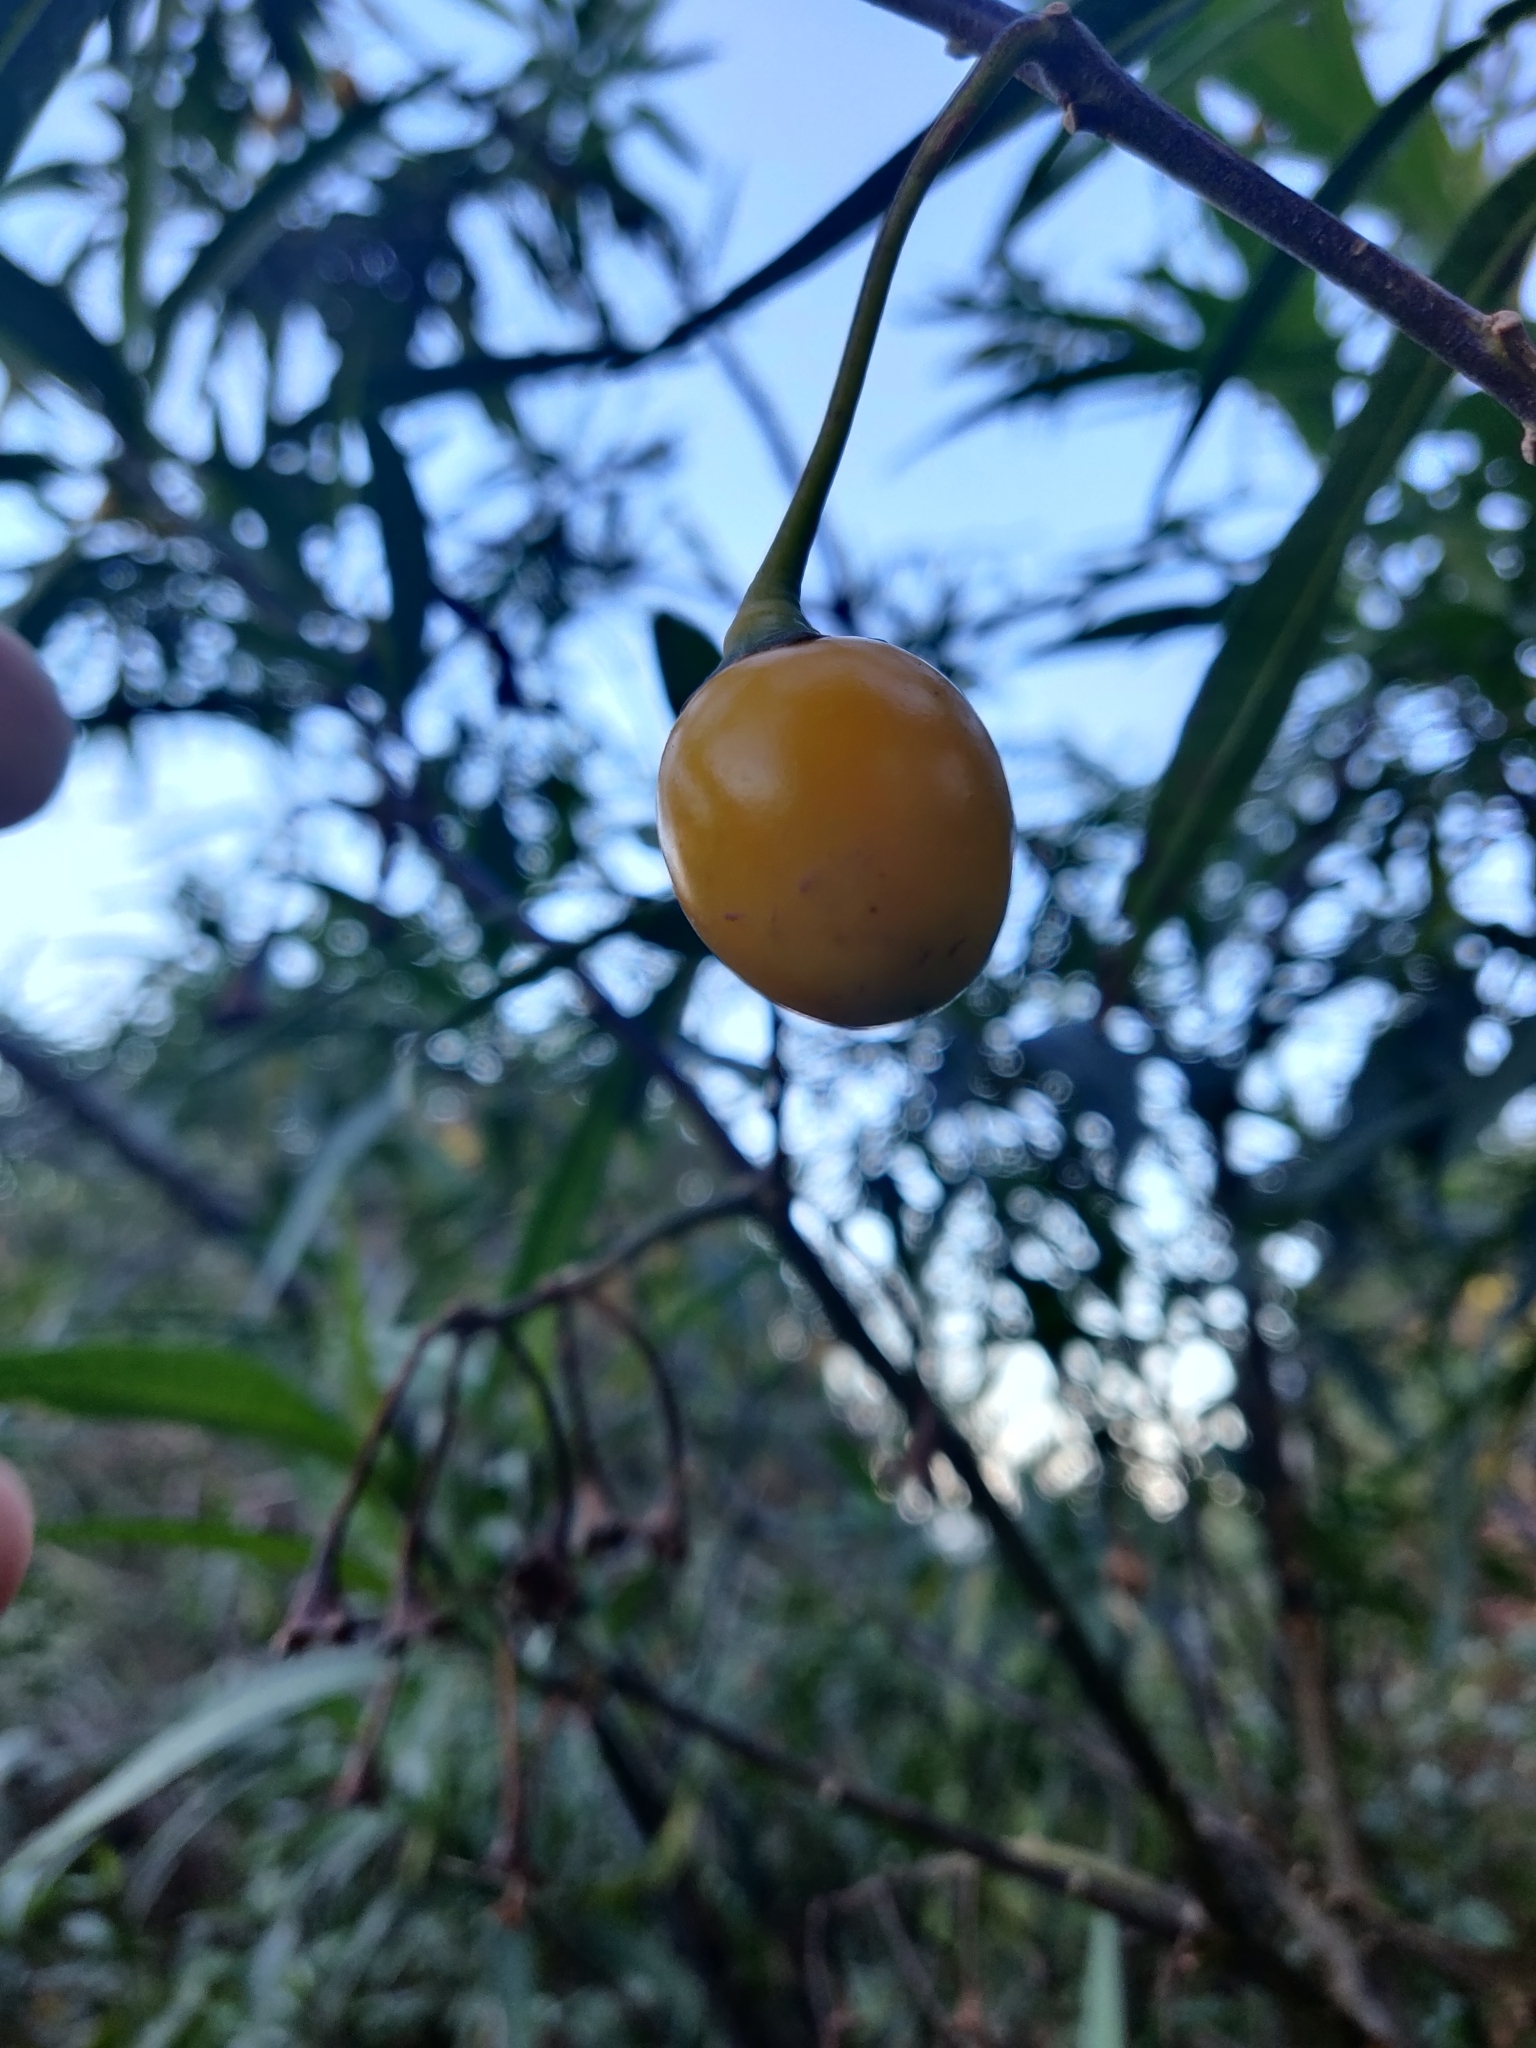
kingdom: Plantae
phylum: Tracheophyta
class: Magnoliopsida
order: Solanales
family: Solanaceae
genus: Solanum
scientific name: Solanum laciniatum
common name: Kangaroo-apple
